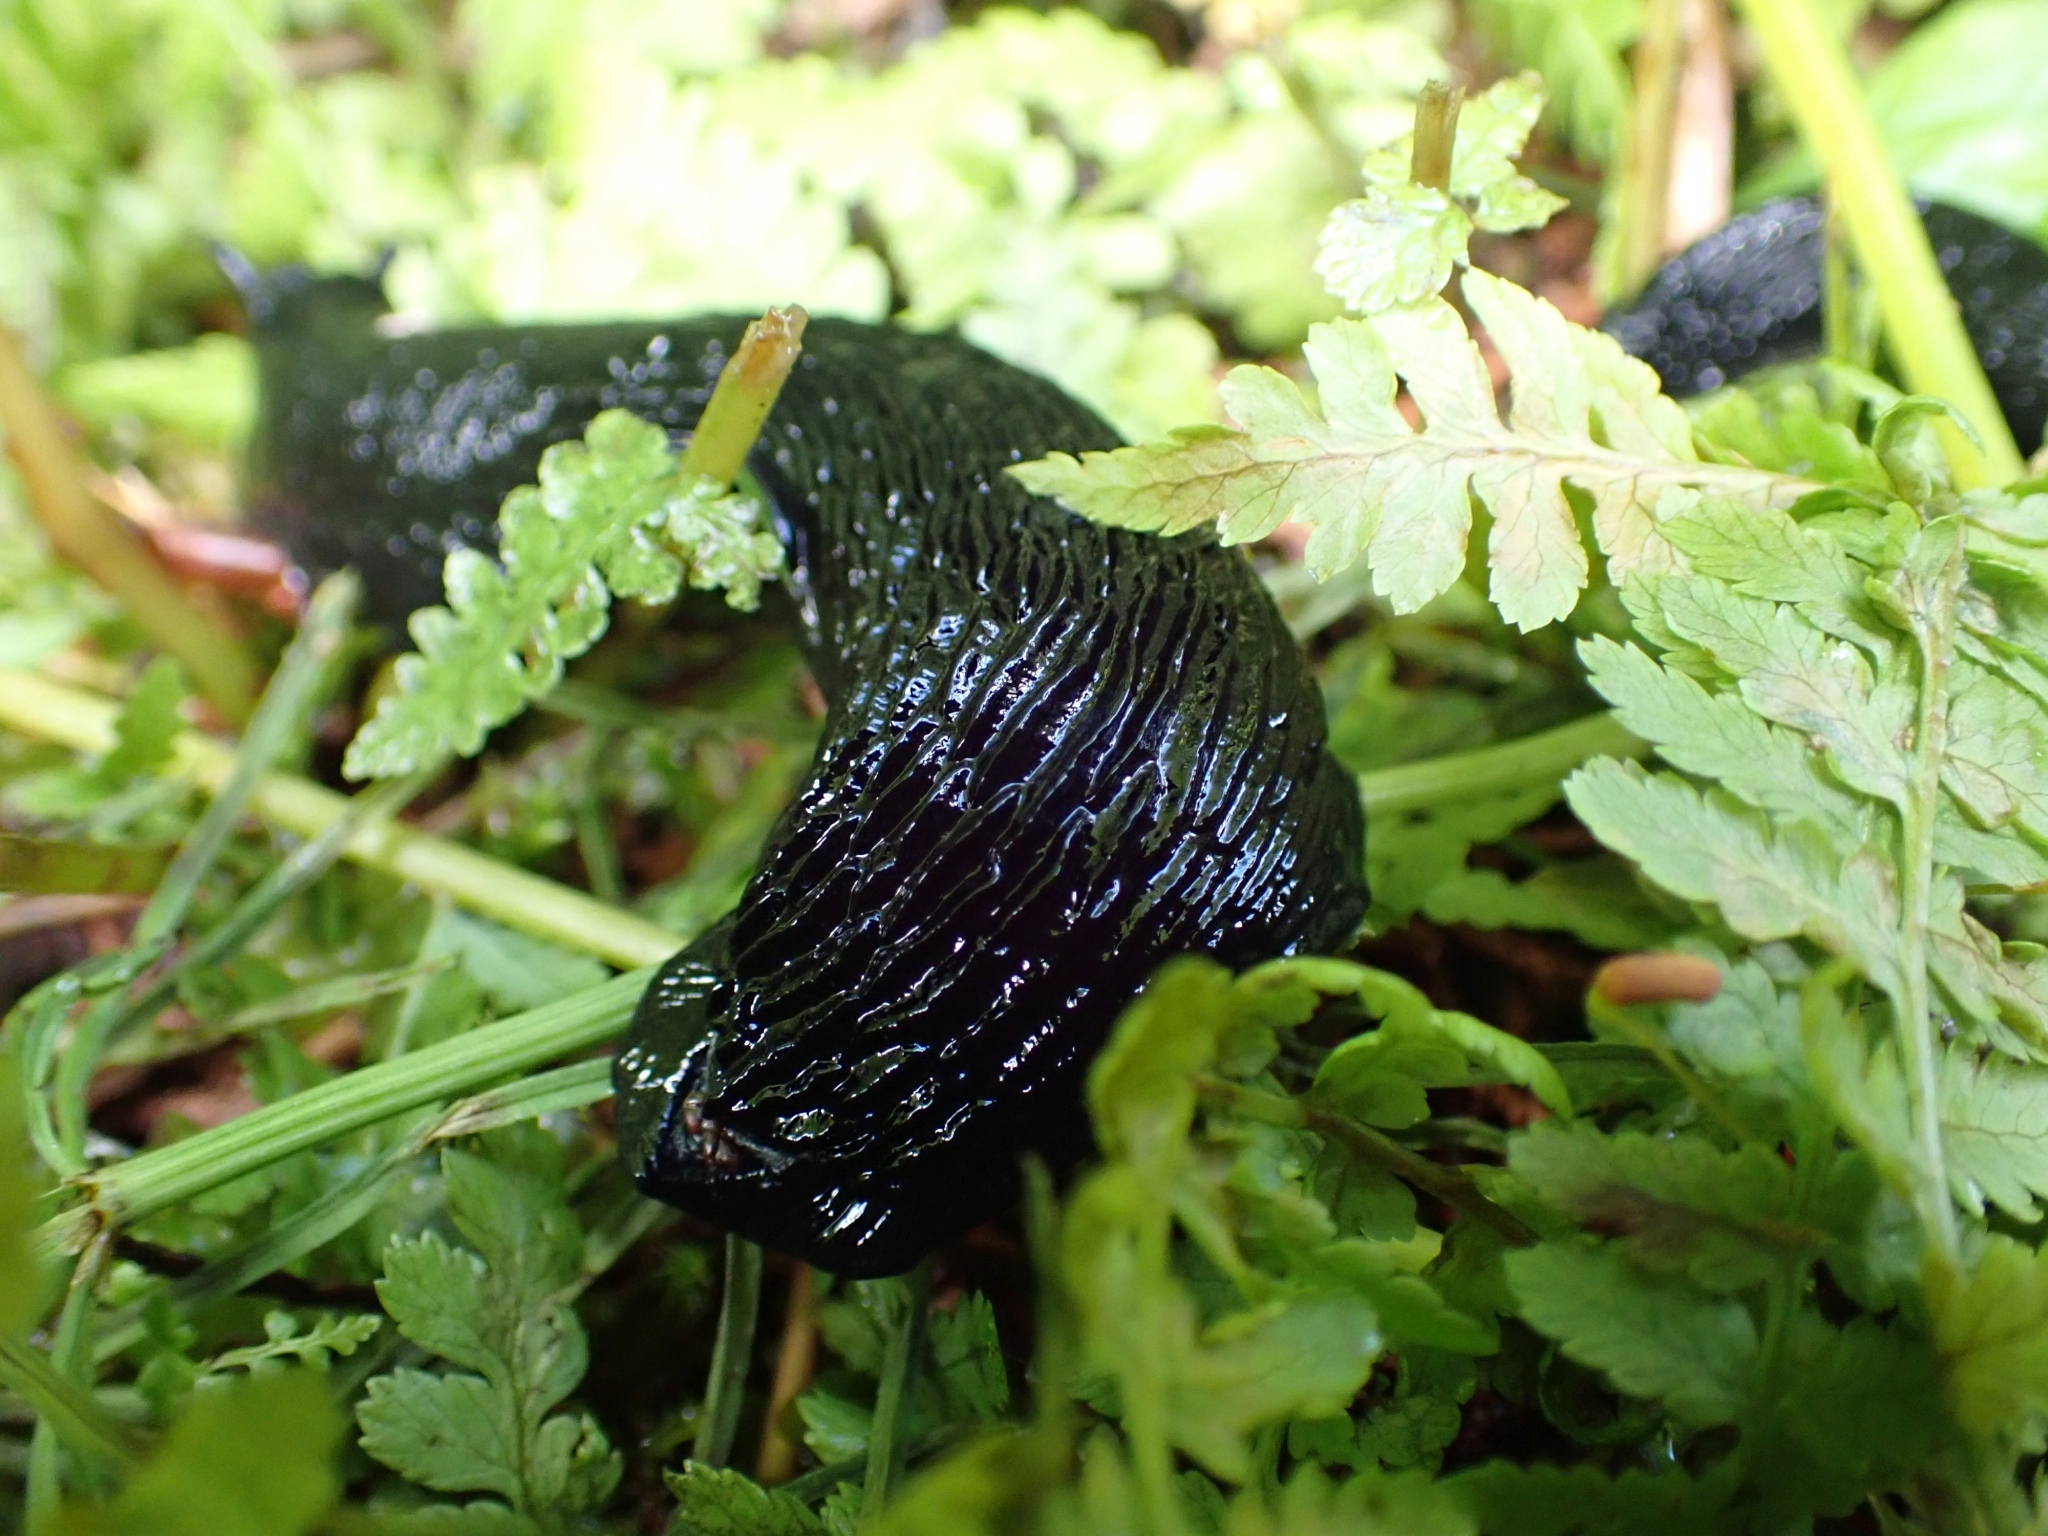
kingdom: Animalia
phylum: Mollusca
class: Gastropoda
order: Stylommatophora
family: Arionidae
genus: Arion
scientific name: Arion
